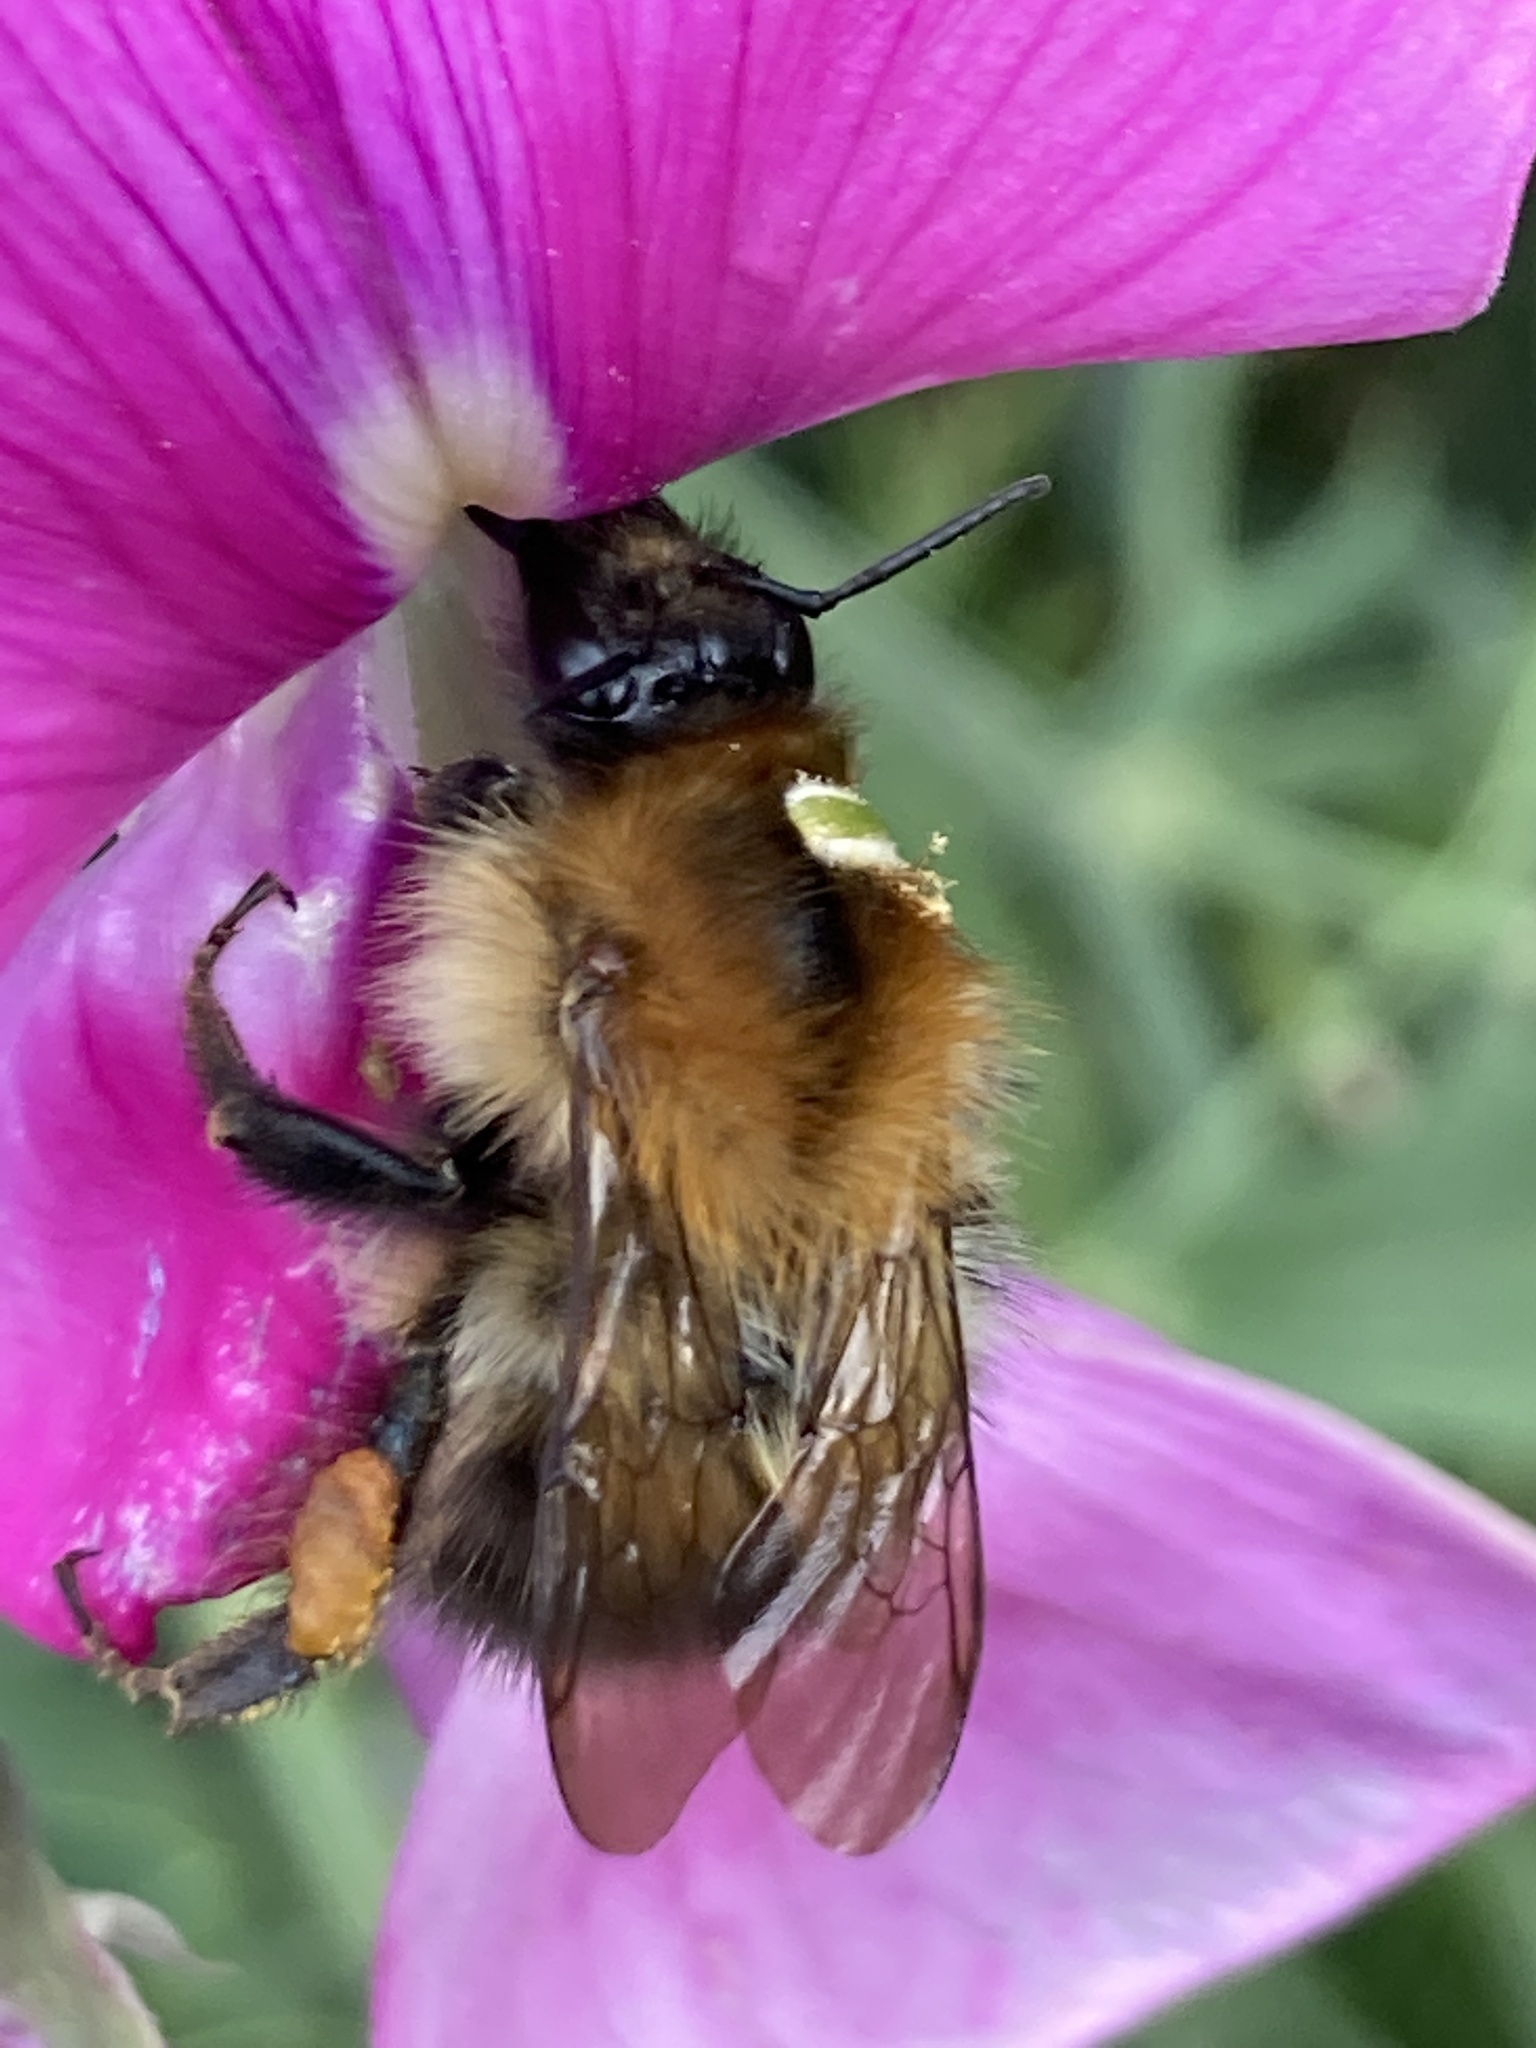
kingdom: Animalia
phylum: Arthropoda
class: Insecta
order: Hymenoptera
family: Apidae
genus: Bombus
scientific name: Bombus pascuorum
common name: Common carder bee
